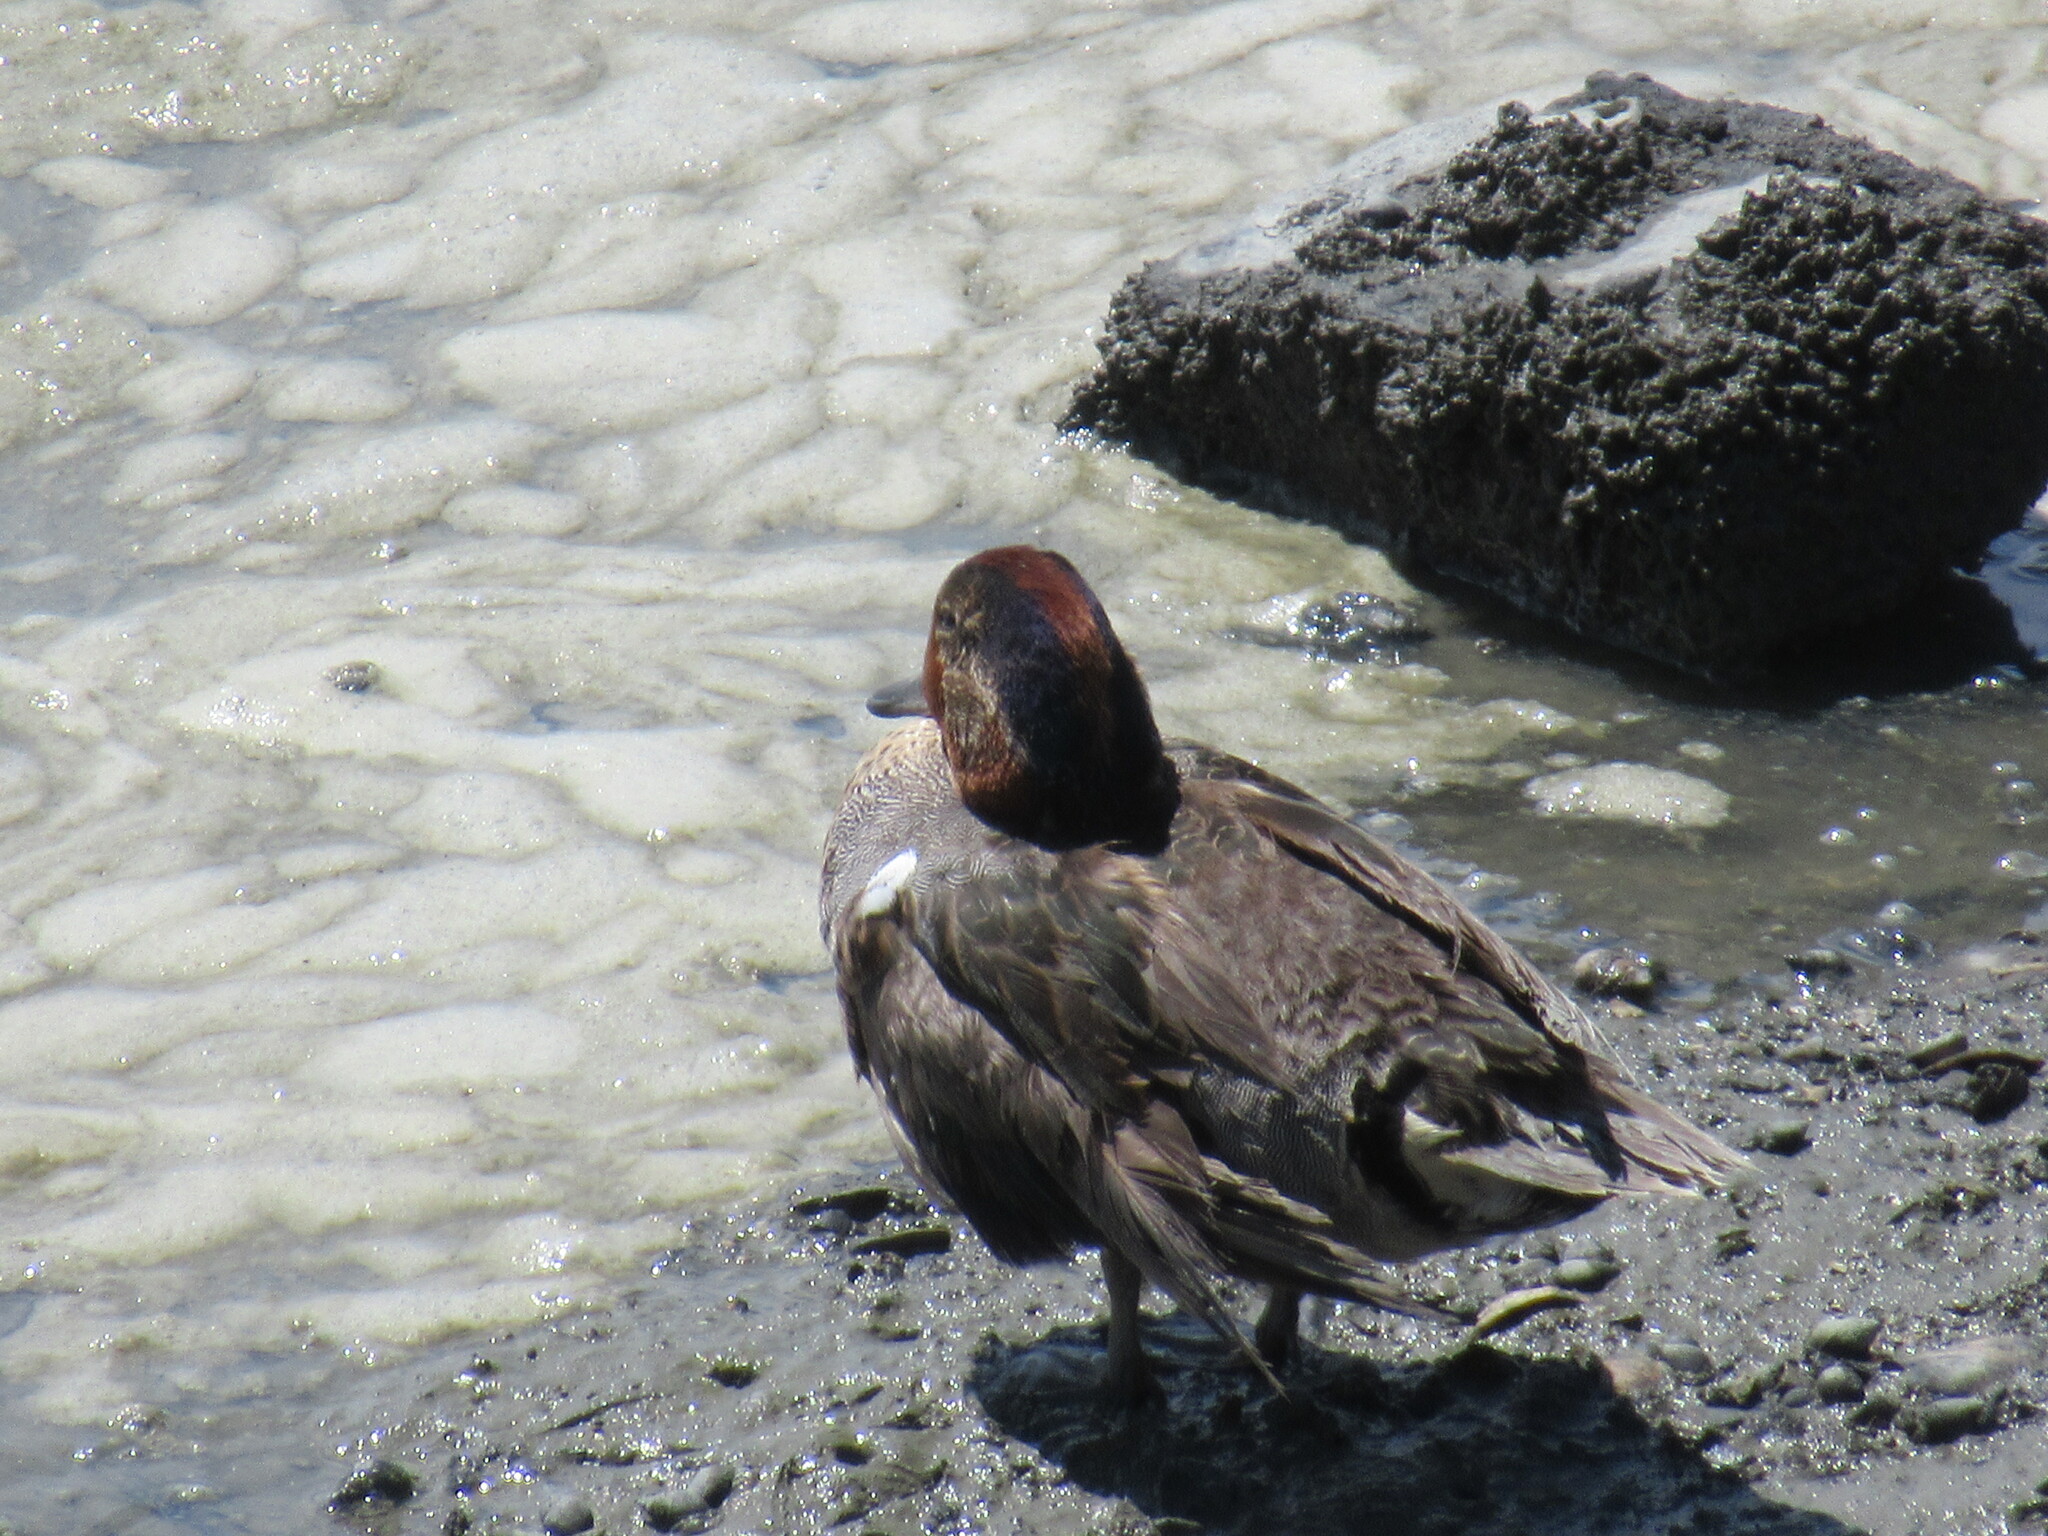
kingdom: Animalia
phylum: Chordata
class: Aves
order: Anseriformes
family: Anatidae
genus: Anas
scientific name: Anas crecca
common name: Eurasian teal
